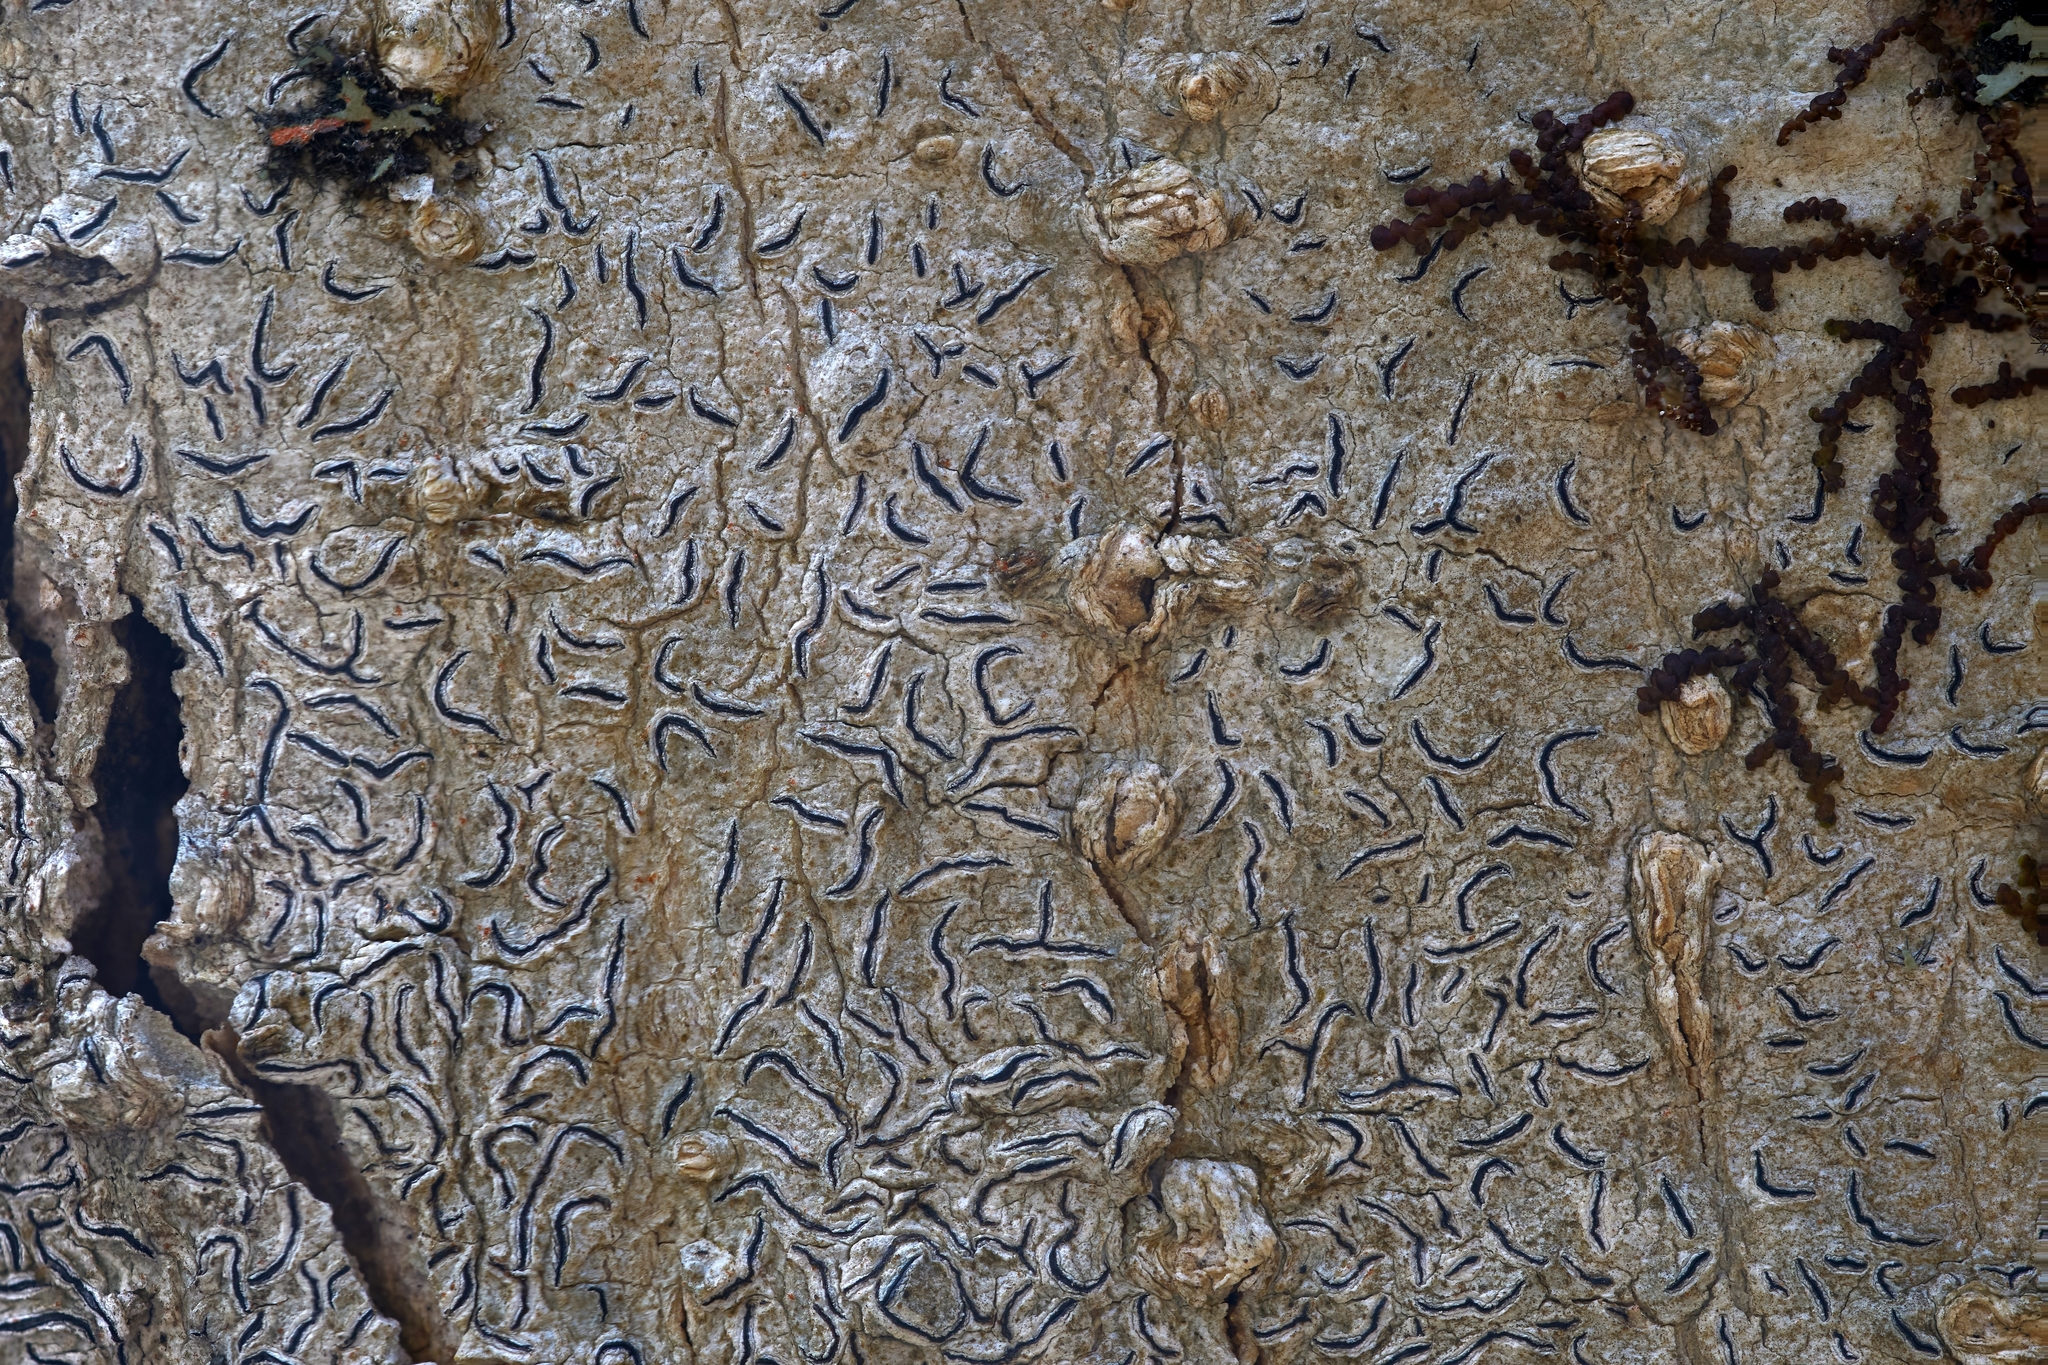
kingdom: Fungi
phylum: Ascomycota
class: Lecanoromycetes
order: Ostropales
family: Graphidaceae
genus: Graphis
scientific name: Graphis scripta
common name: Script lichen
